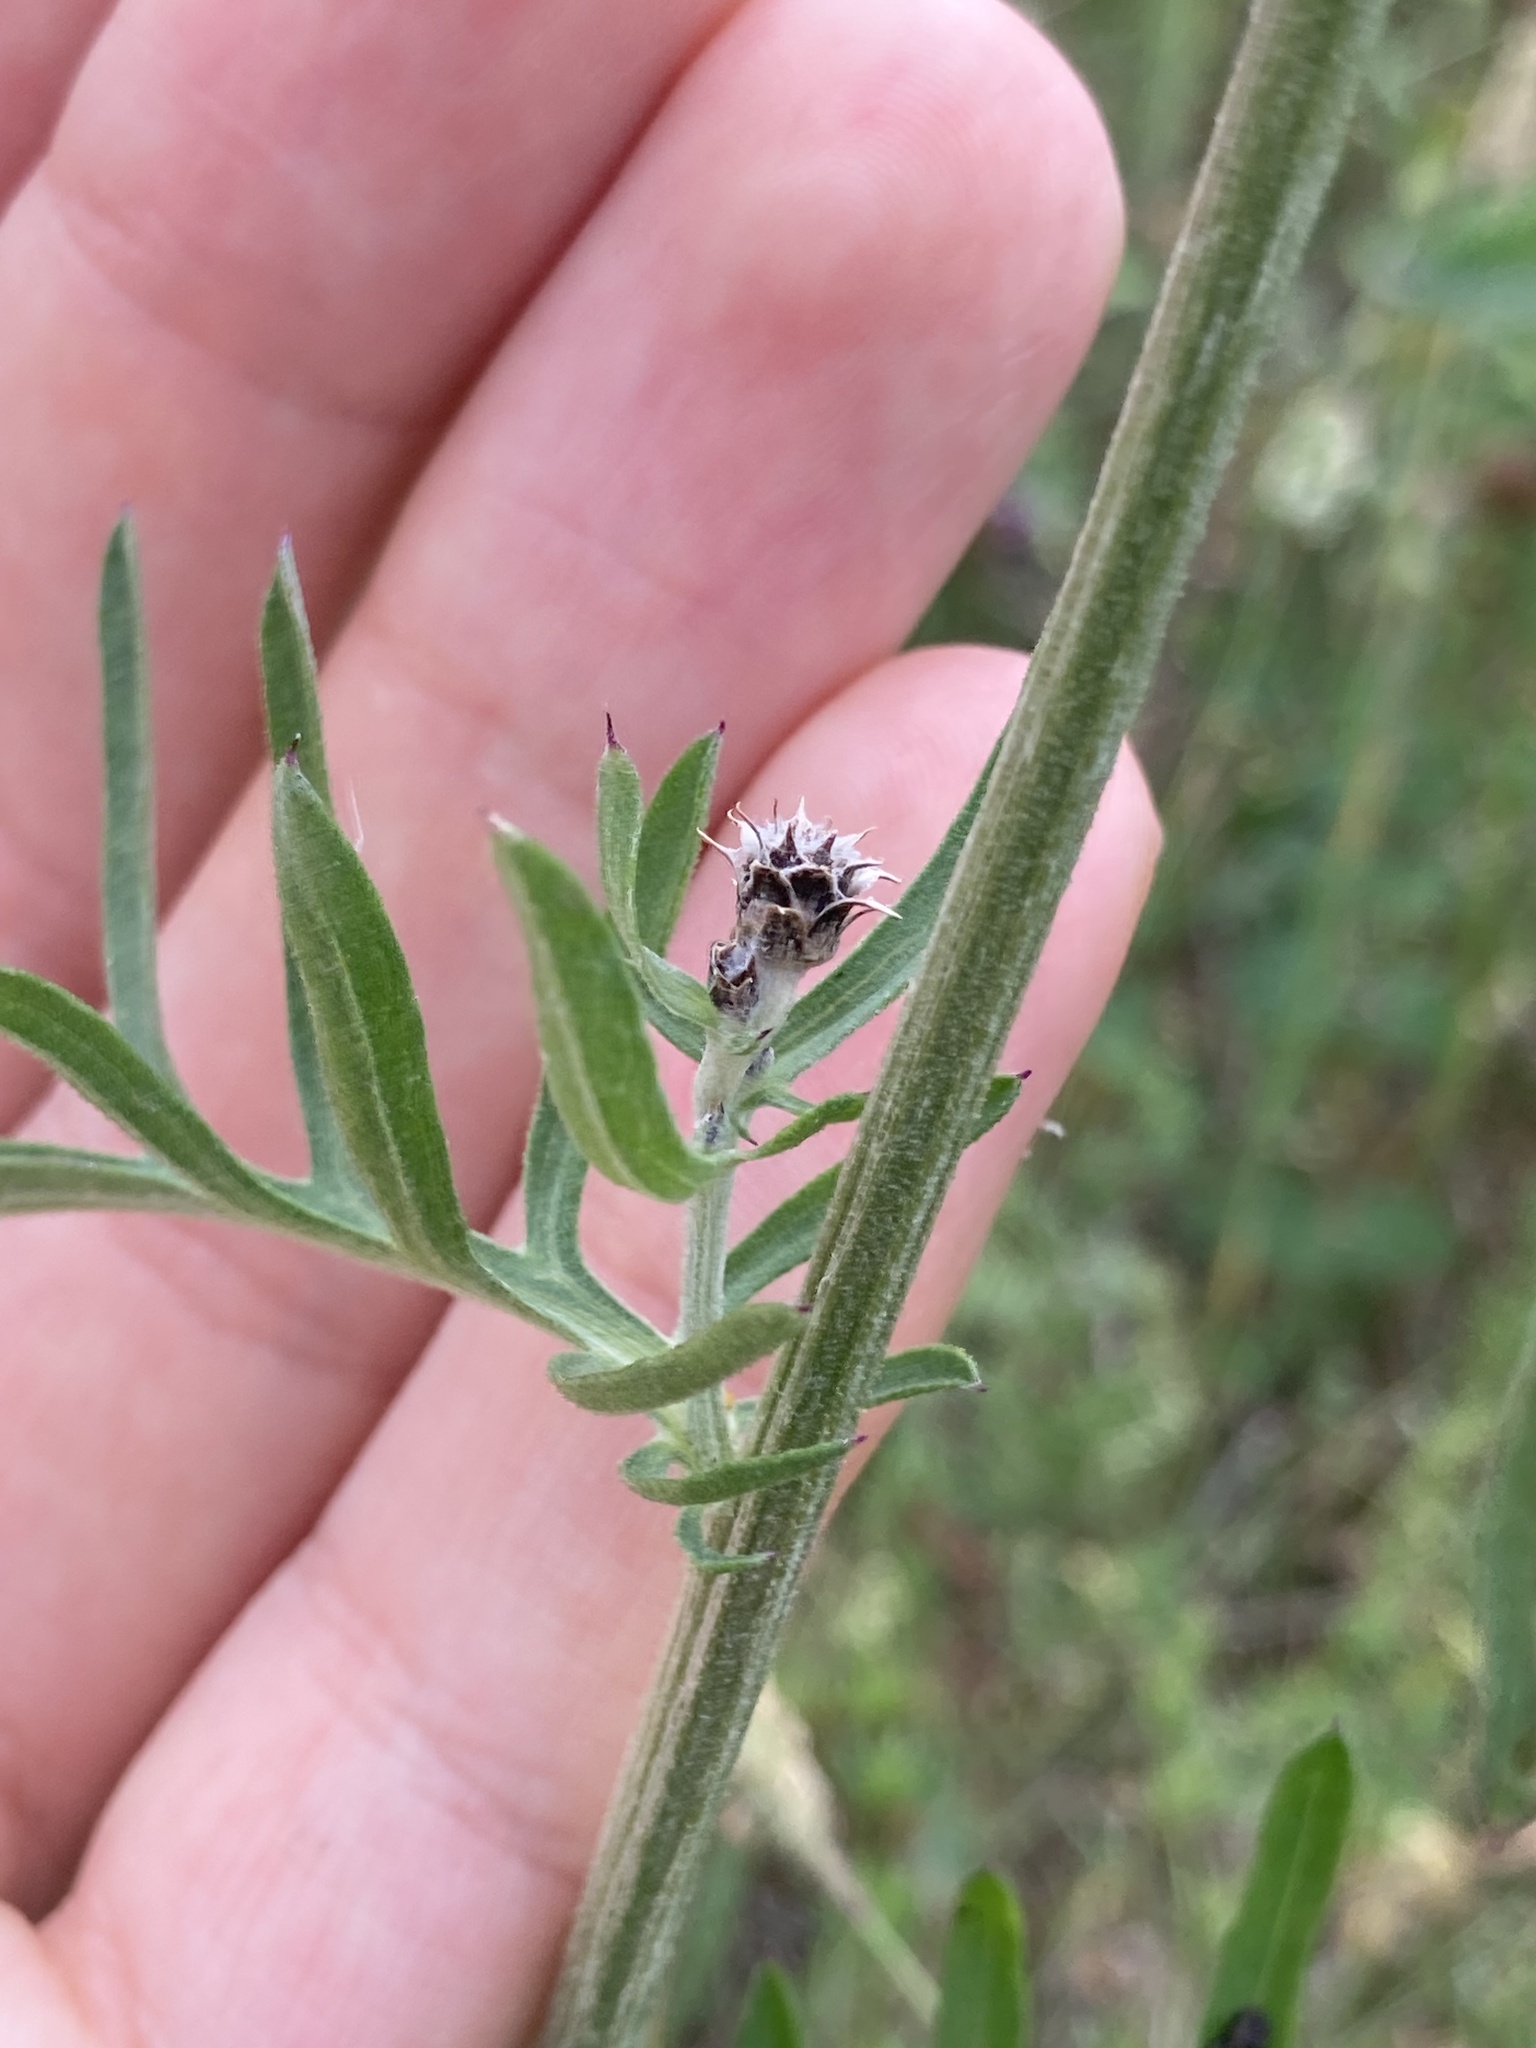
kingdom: Plantae
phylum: Tracheophyta
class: Magnoliopsida
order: Asterales
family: Asteraceae
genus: Centaurea
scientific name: Centaurea scabiosa
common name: Greater knapweed
